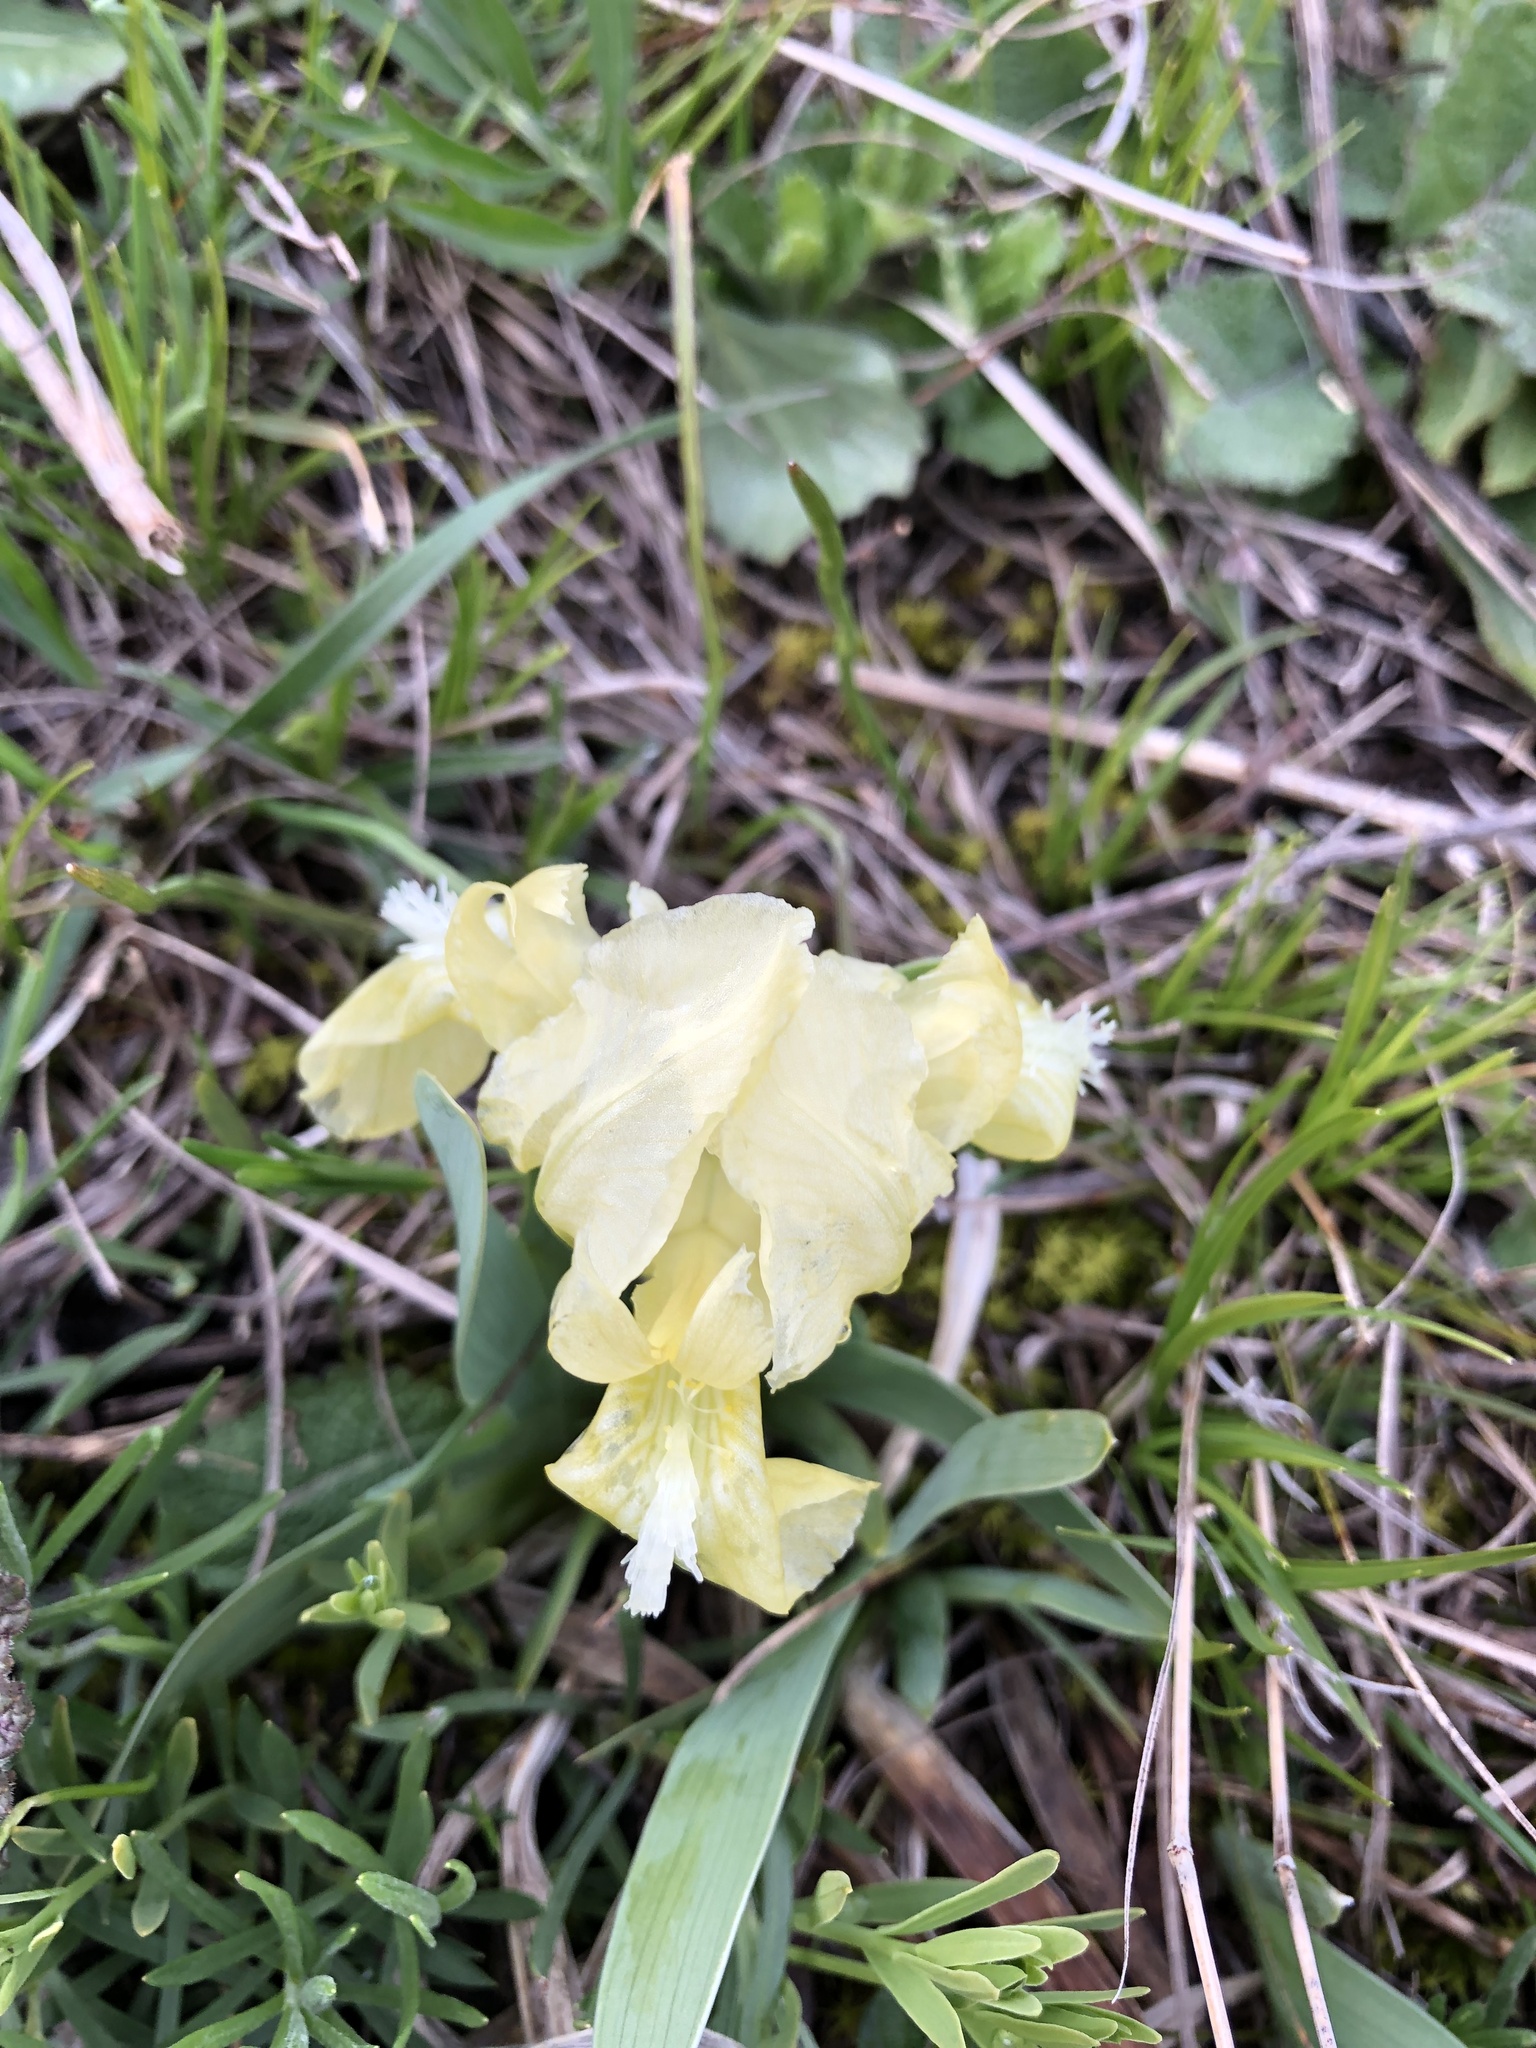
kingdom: Plantae
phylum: Tracheophyta
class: Liliopsida
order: Asparagales
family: Iridaceae
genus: Iris
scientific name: Iris pumila
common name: Dwarf iris
